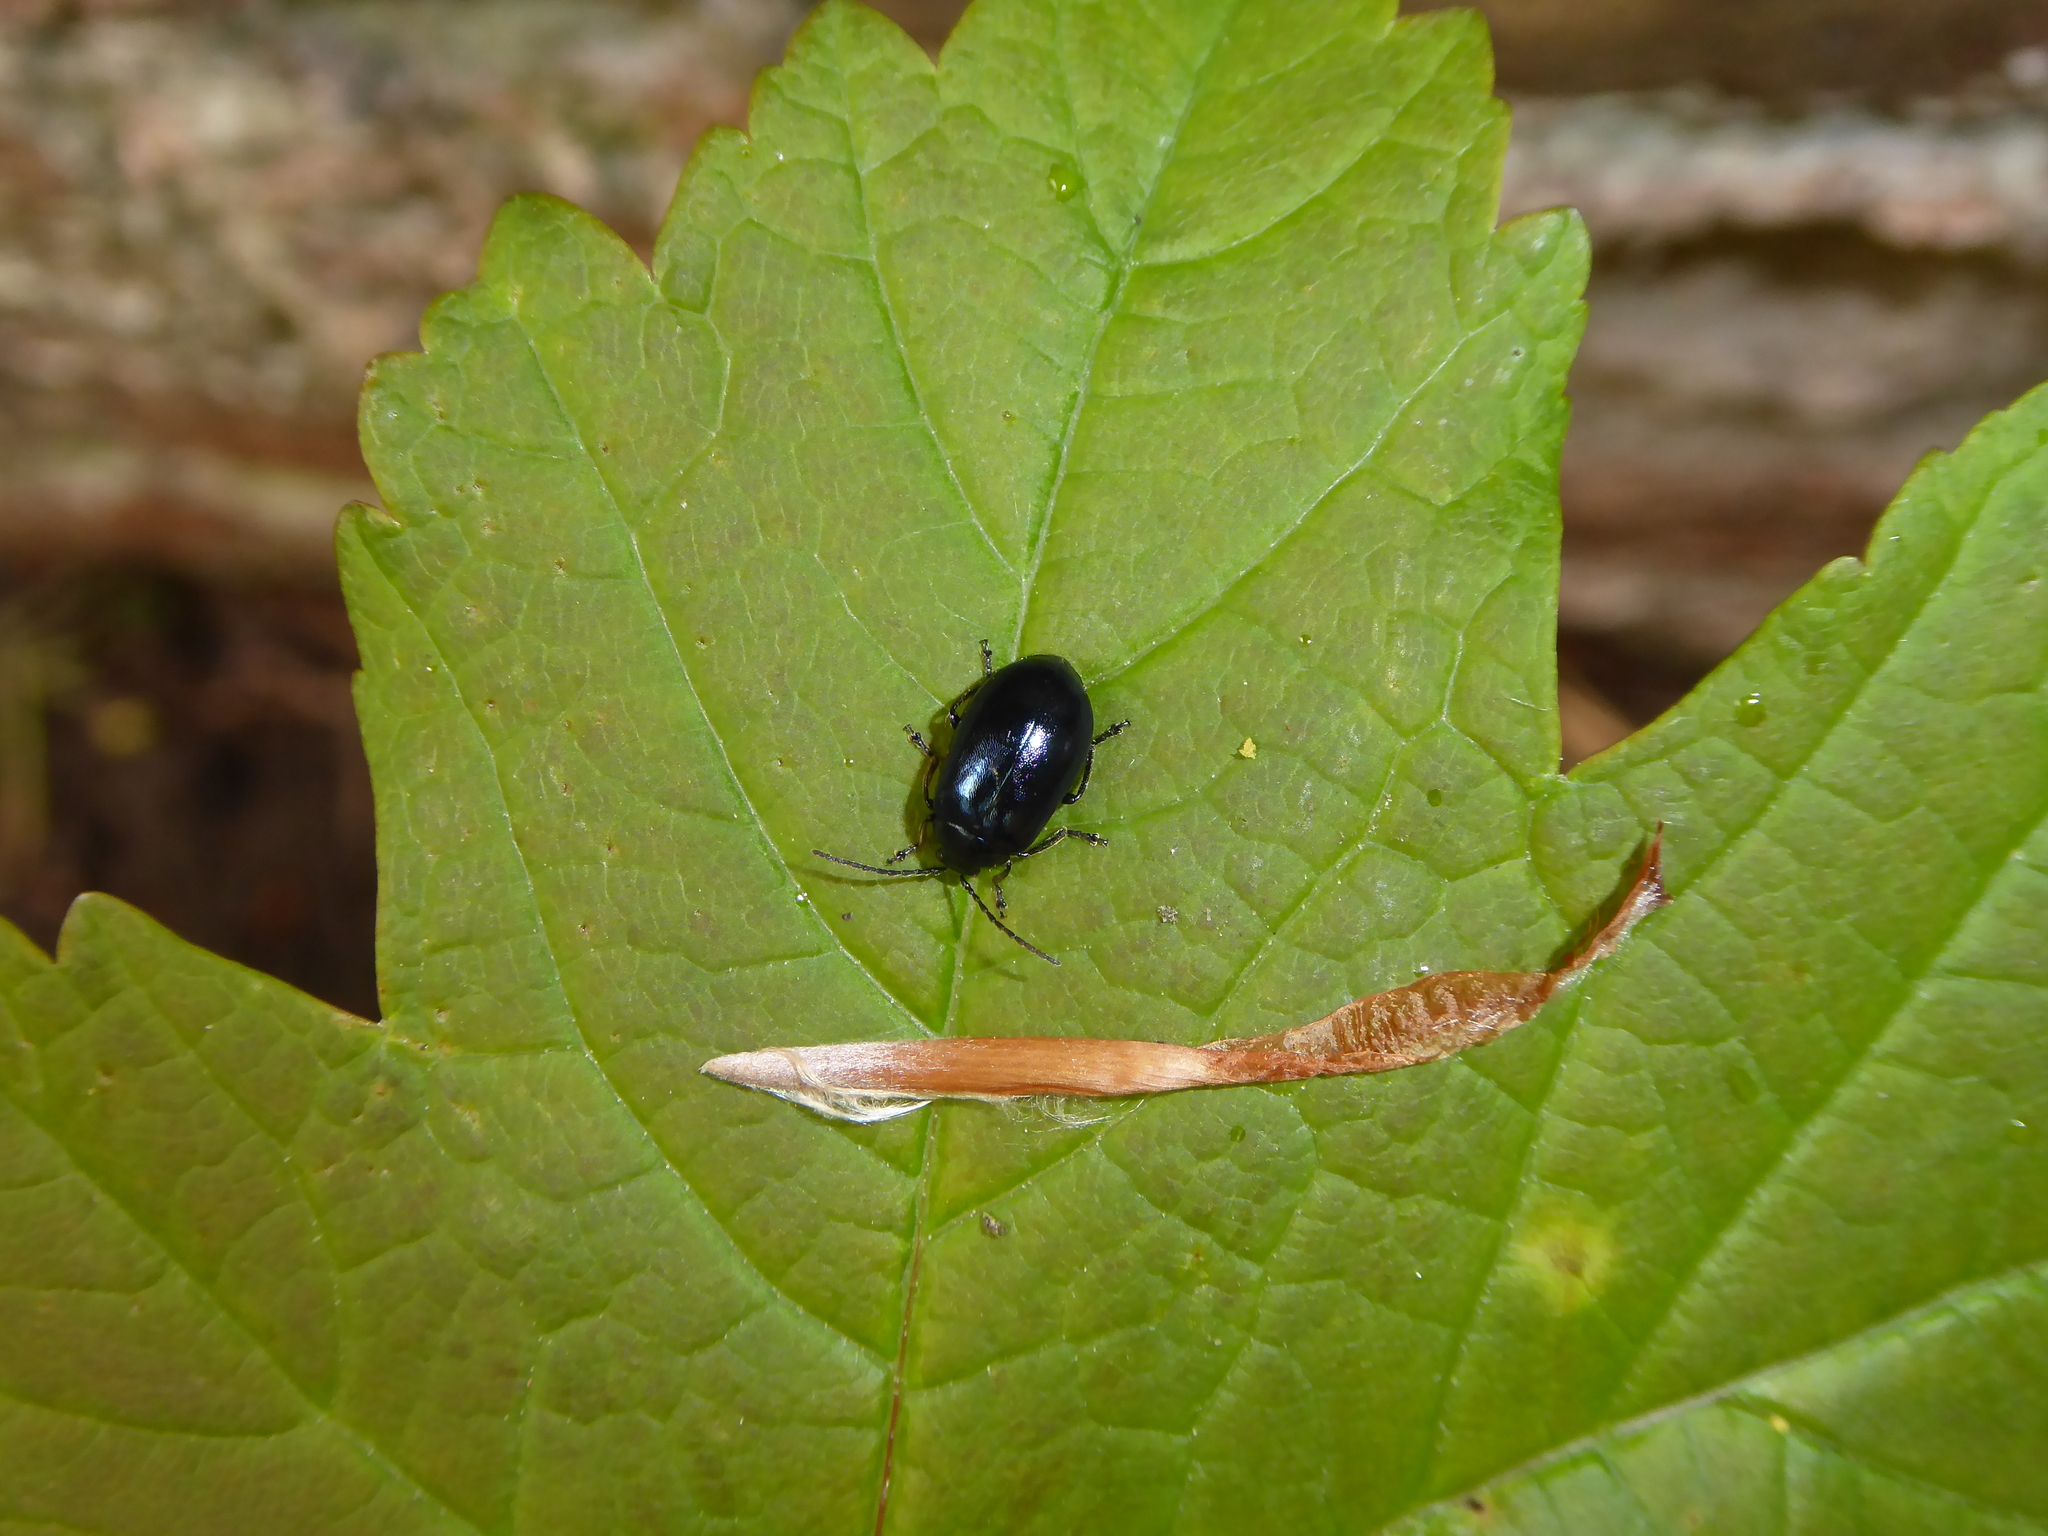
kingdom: Animalia
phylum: Arthropoda
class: Insecta
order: Coleoptera
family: Chrysomelidae
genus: Agelastica
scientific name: Agelastica alni
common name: Alder leaf beetle
